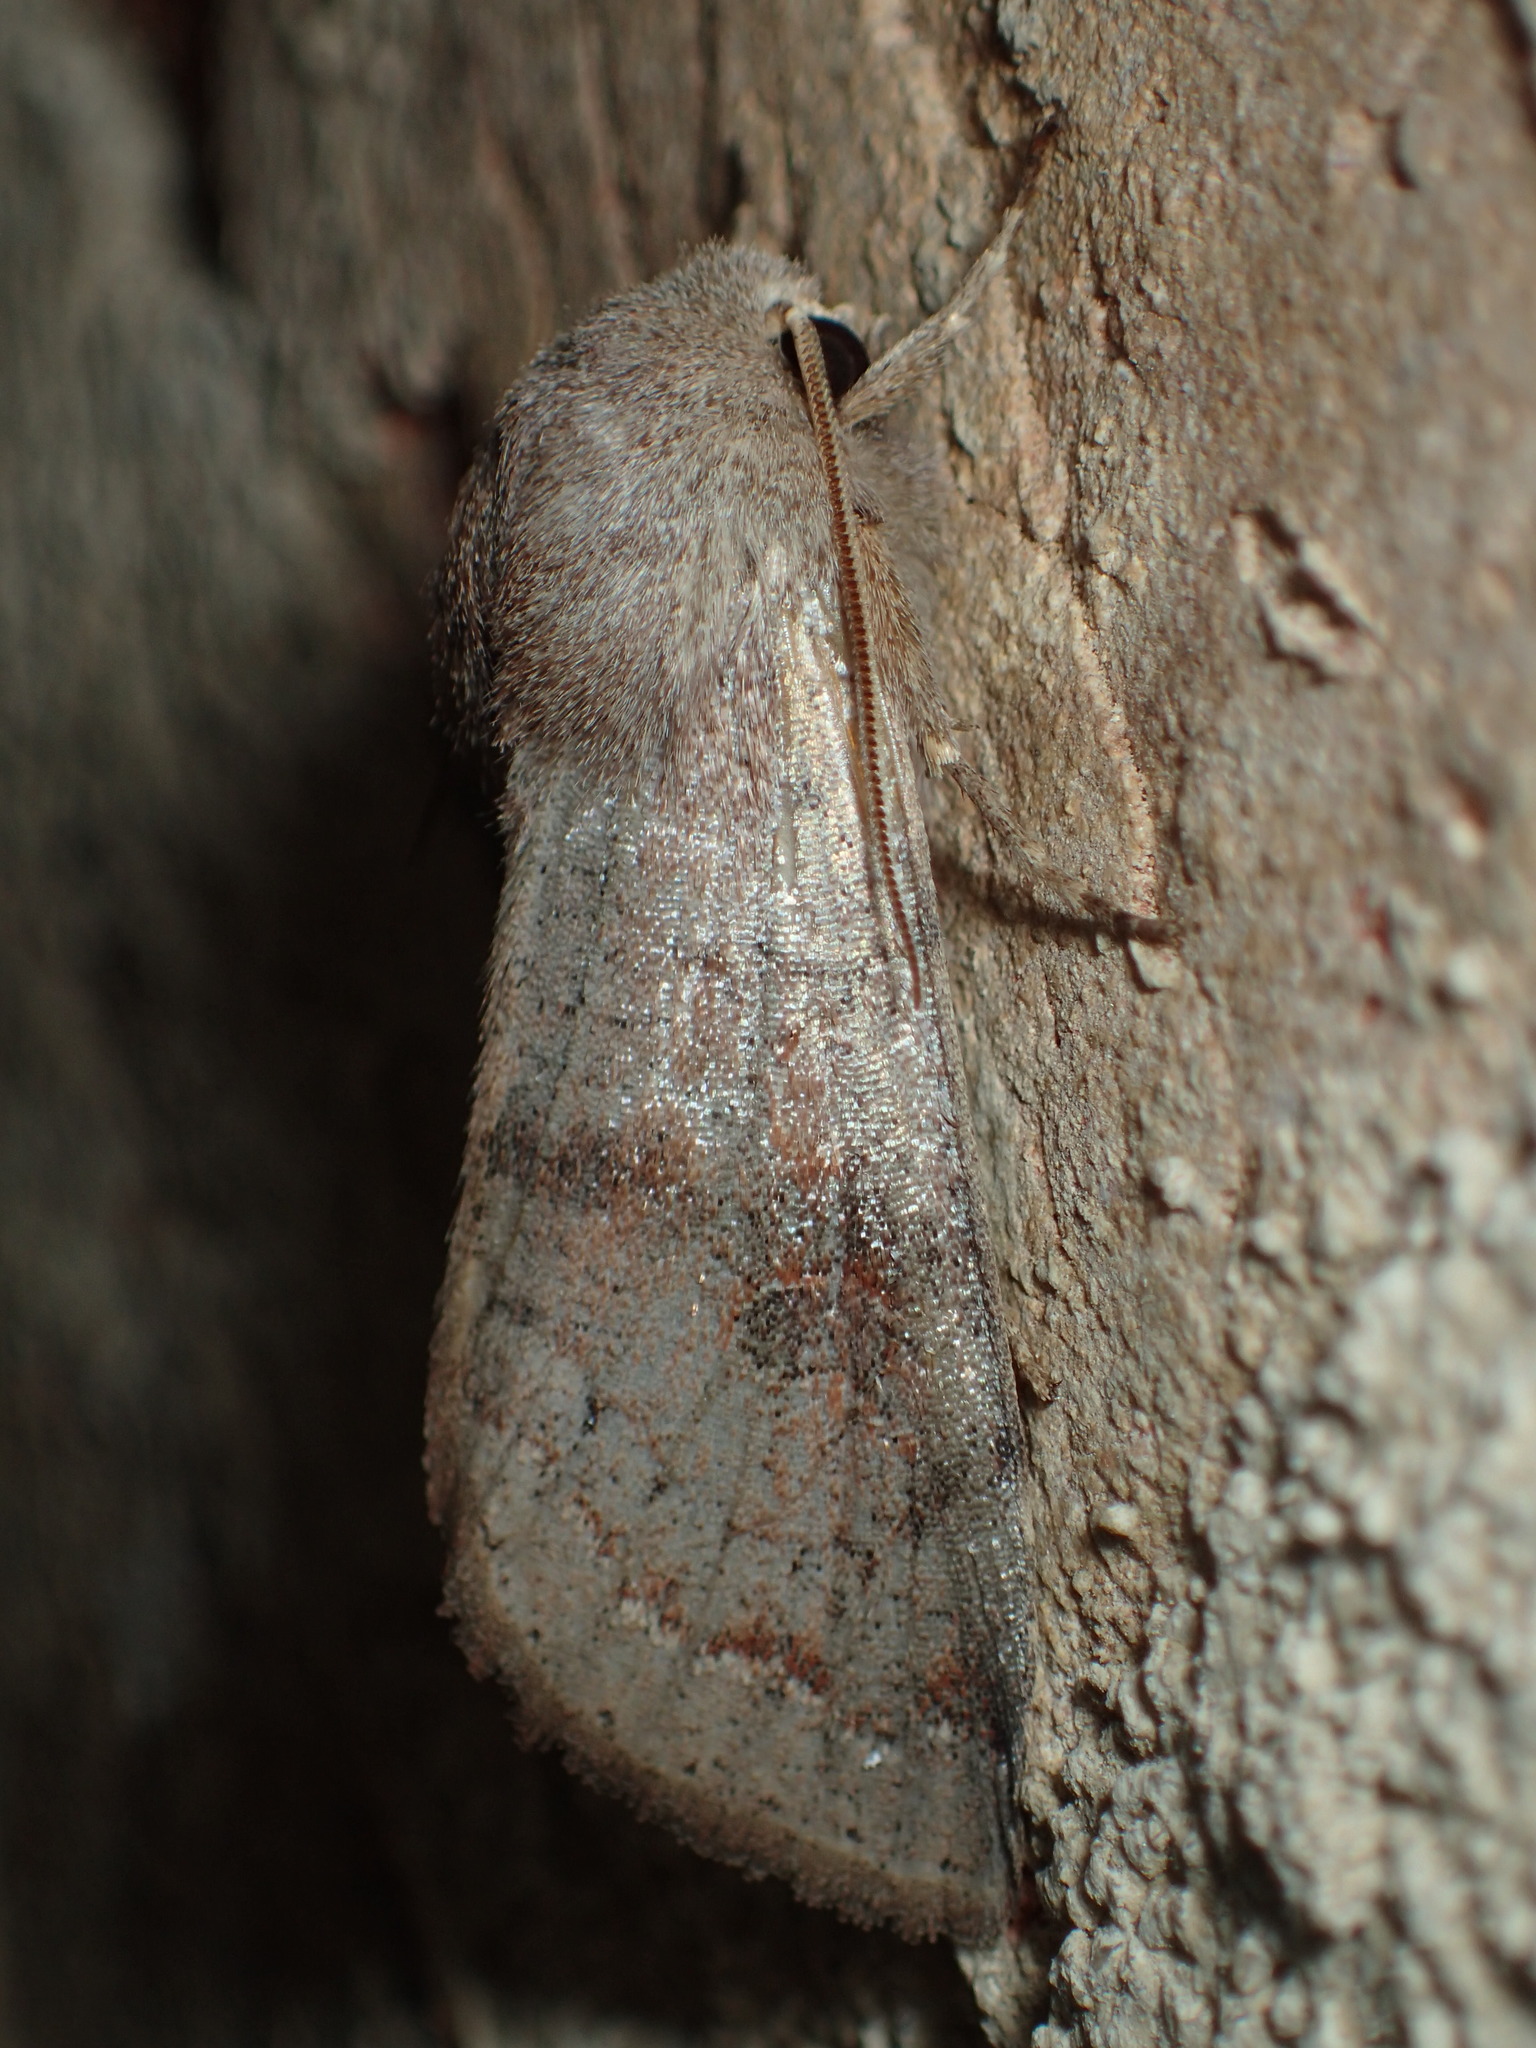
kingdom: Animalia
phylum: Arthropoda
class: Insecta
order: Lepidoptera
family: Noctuidae
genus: Orthosia
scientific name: Orthosia alurina
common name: Gray quaker
